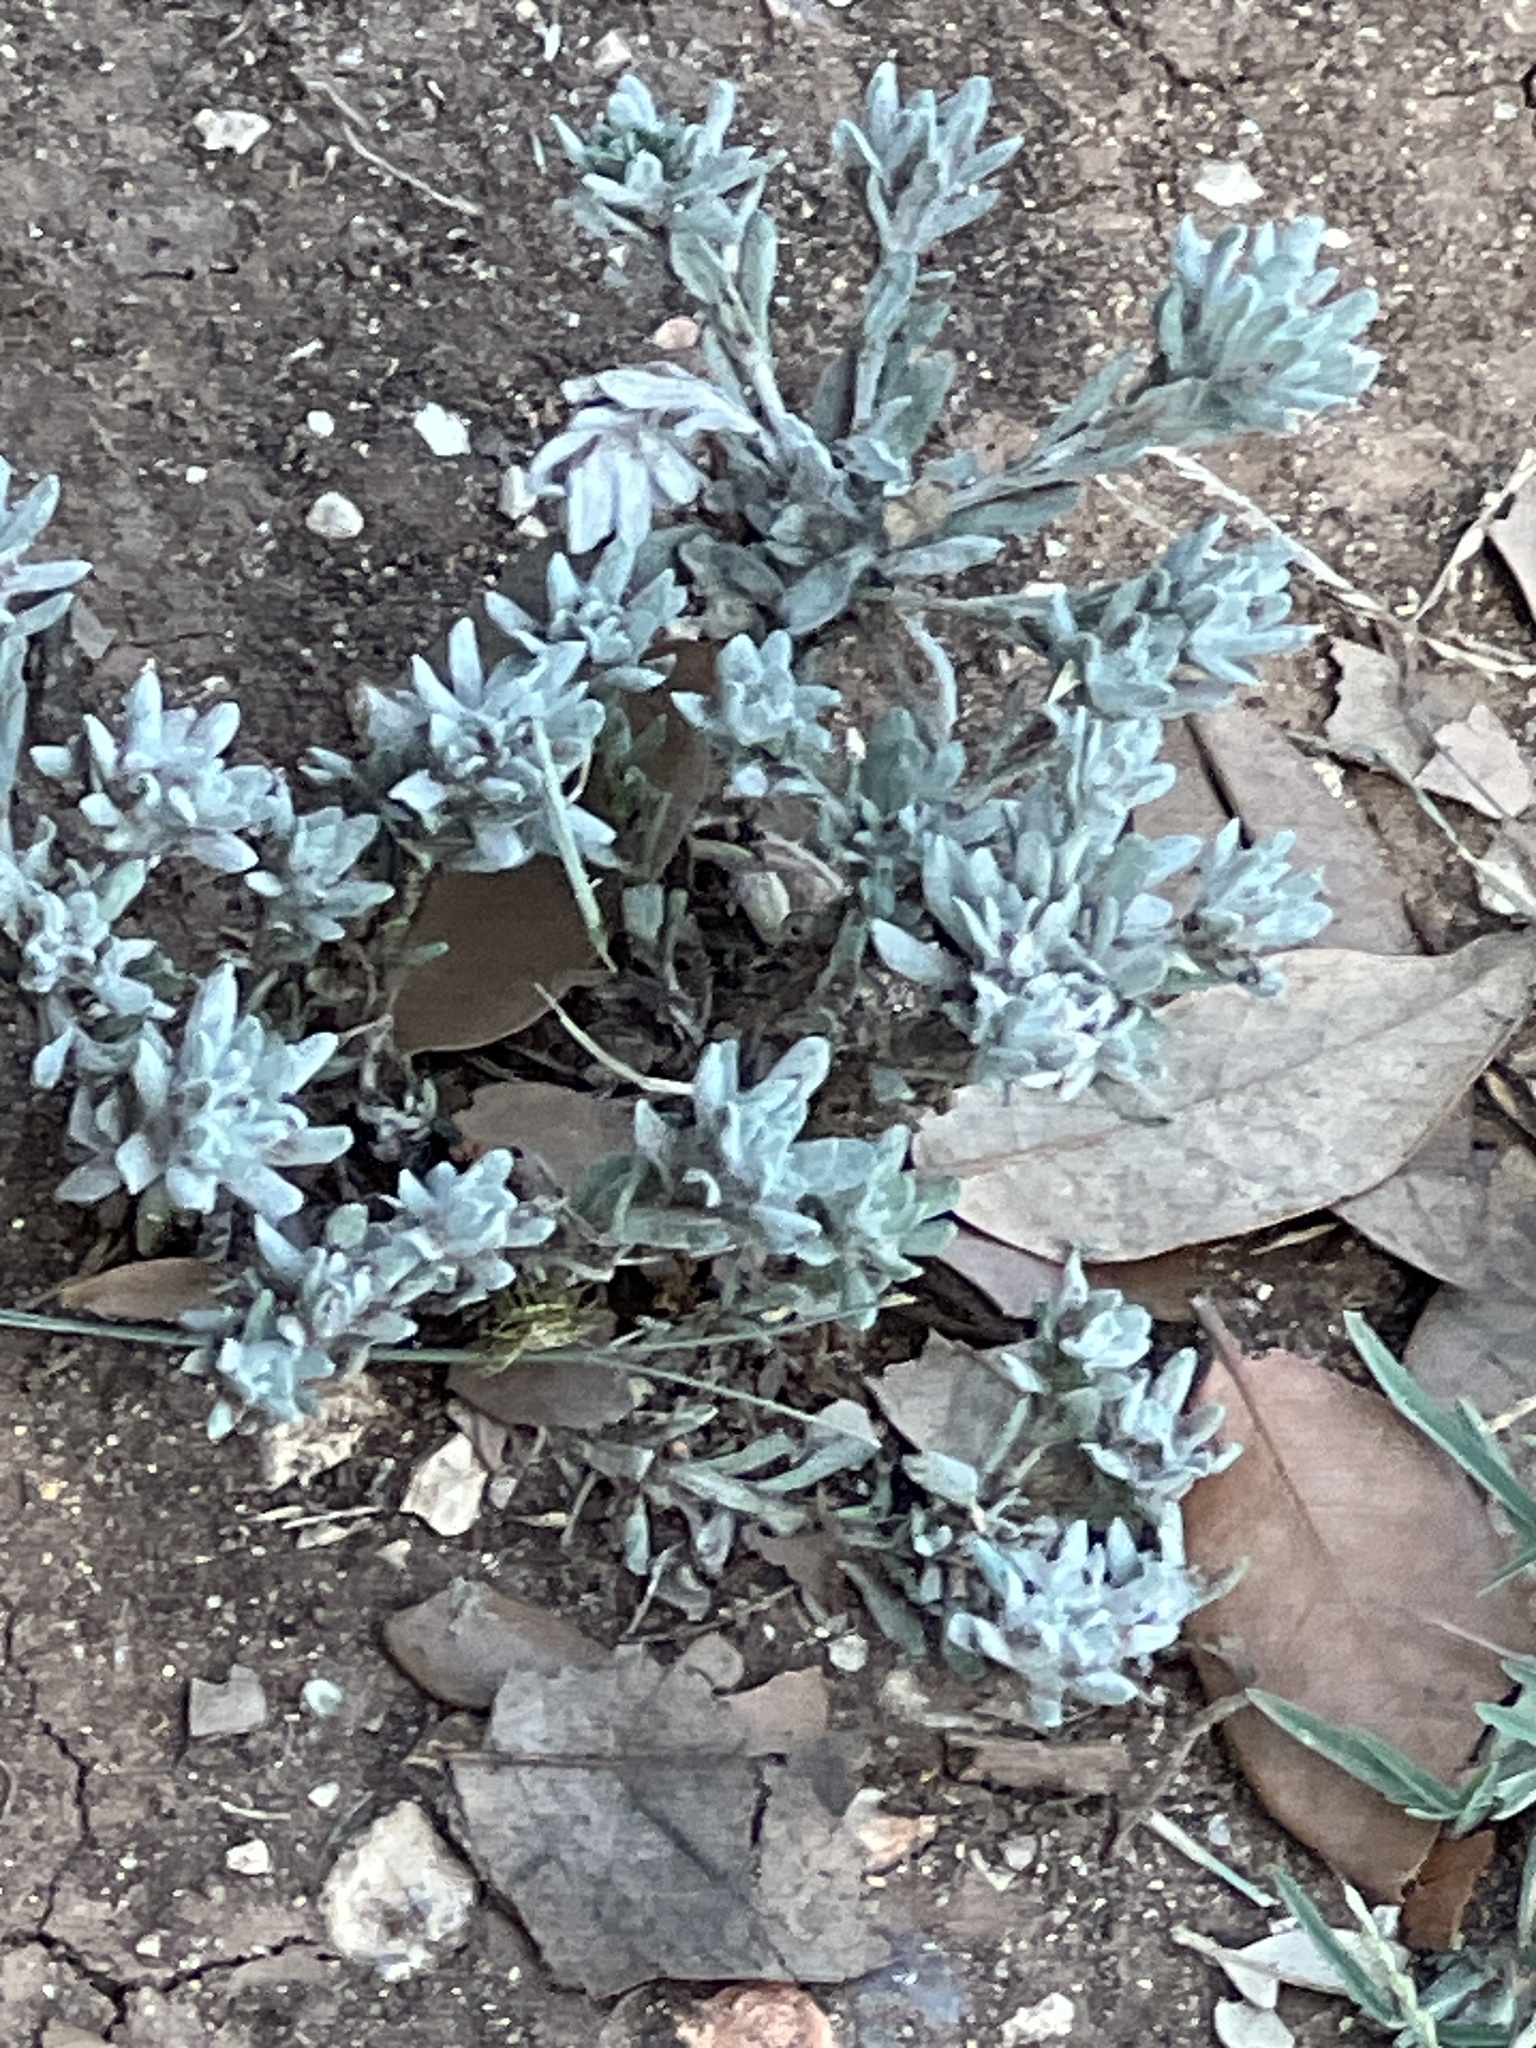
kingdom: Plantae
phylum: Tracheophyta
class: Magnoliopsida
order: Asterales
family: Asteraceae
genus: Diaperia
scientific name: Diaperia prolifera
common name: Big-head rabbit-tobacco
